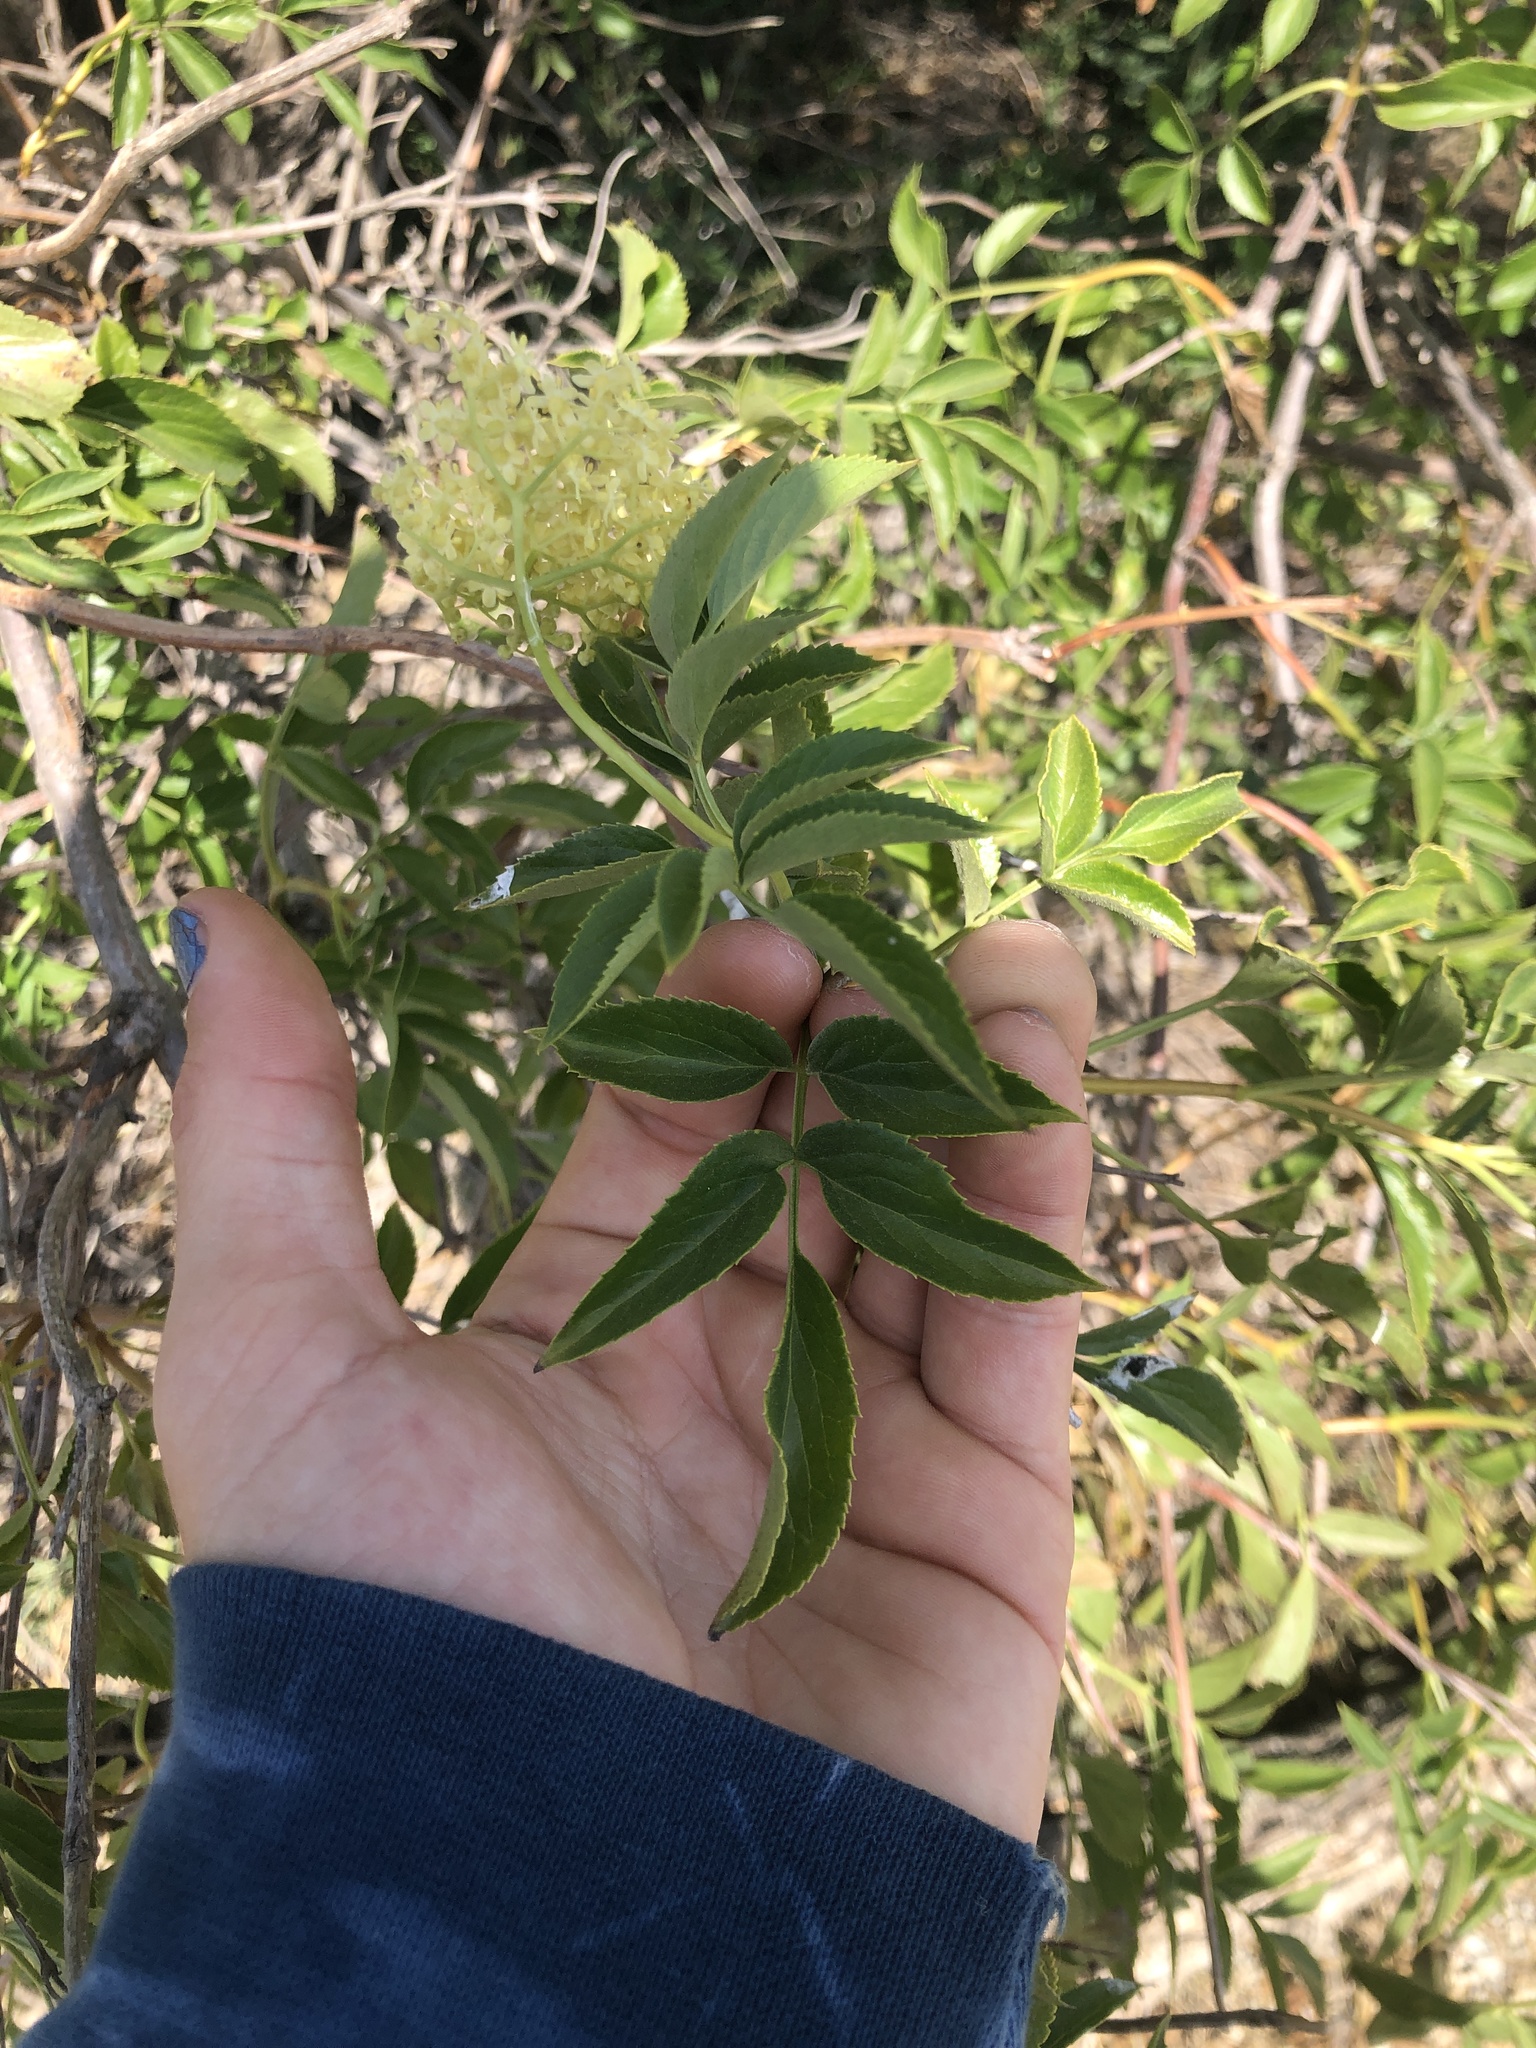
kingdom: Plantae
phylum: Tracheophyta
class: Magnoliopsida
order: Dipsacales
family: Viburnaceae
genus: Sambucus
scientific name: Sambucus cerulea
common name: Blue elder
